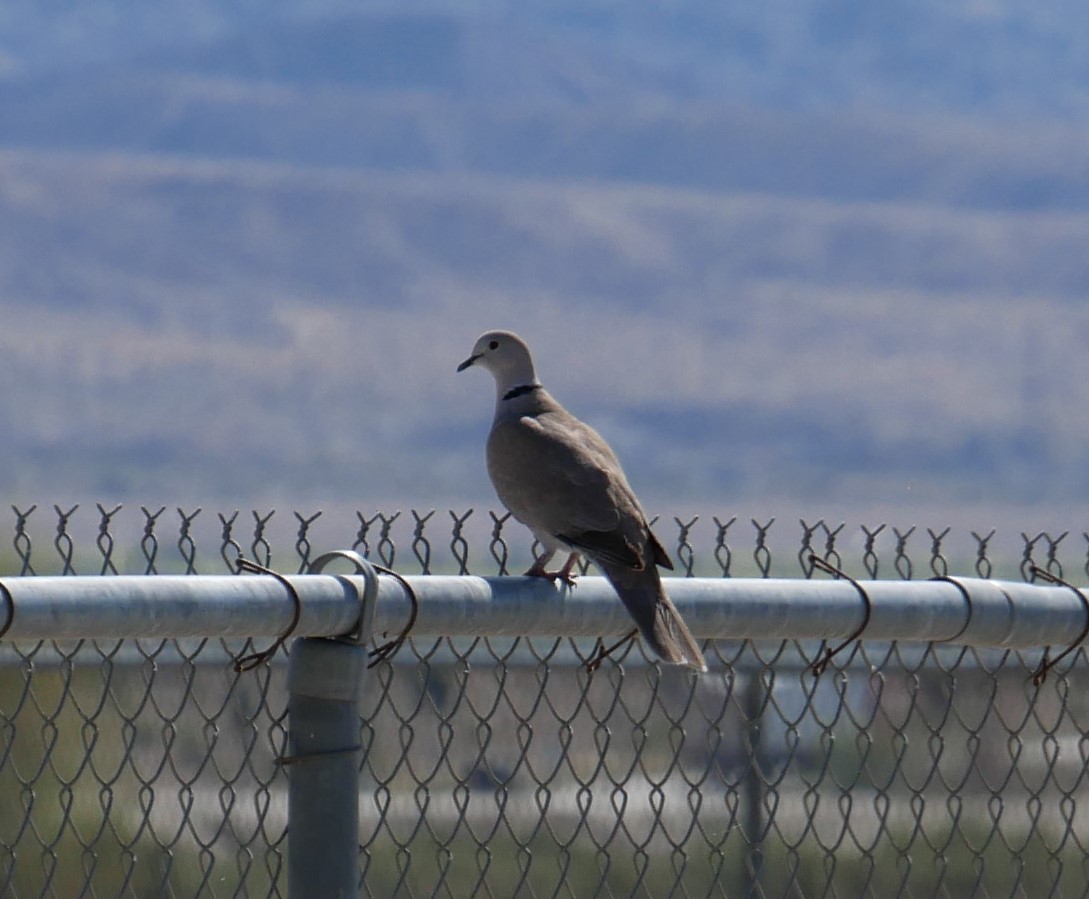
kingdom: Animalia
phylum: Chordata
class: Aves
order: Columbiformes
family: Columbidae
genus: Streptopelia
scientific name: Streptopelia decaocto
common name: Eurasian collared dove
